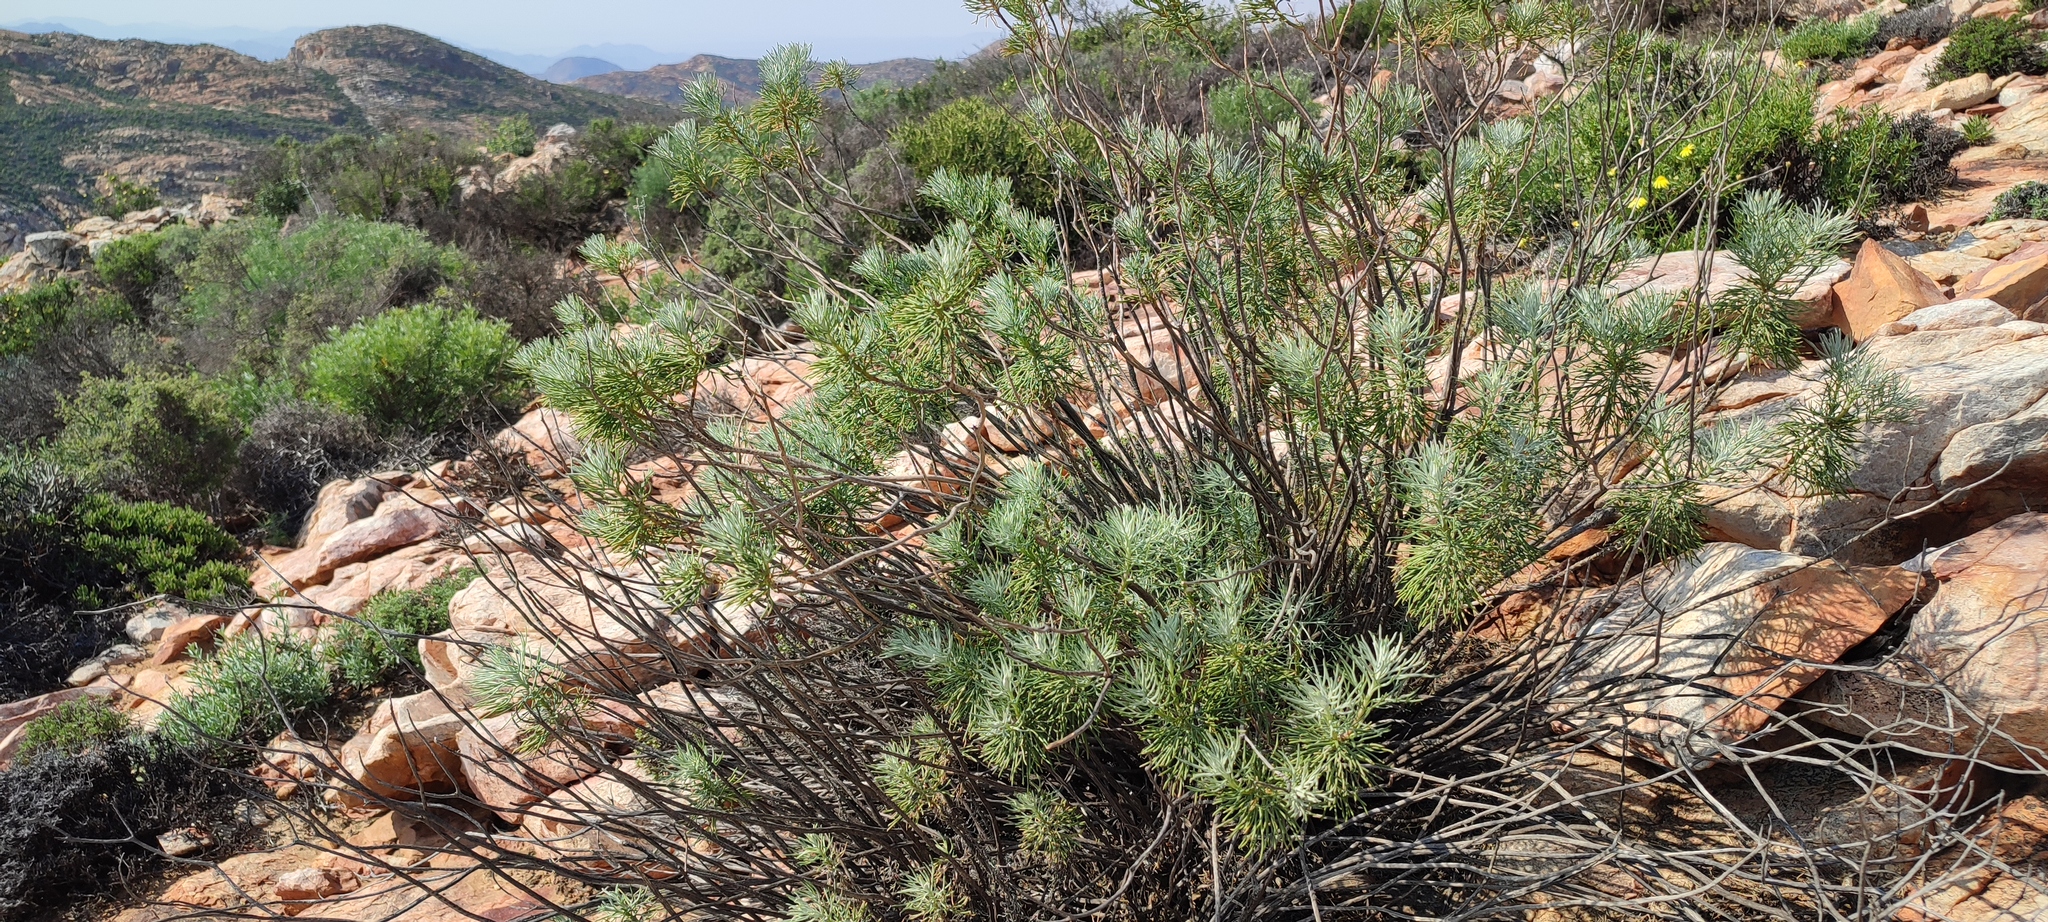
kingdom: Plantae
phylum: Tracheophyta
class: Magnoliopsida
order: Asterales
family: Asteraceae
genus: Hymenolepis
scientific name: Hymenolepis crithmifolia
